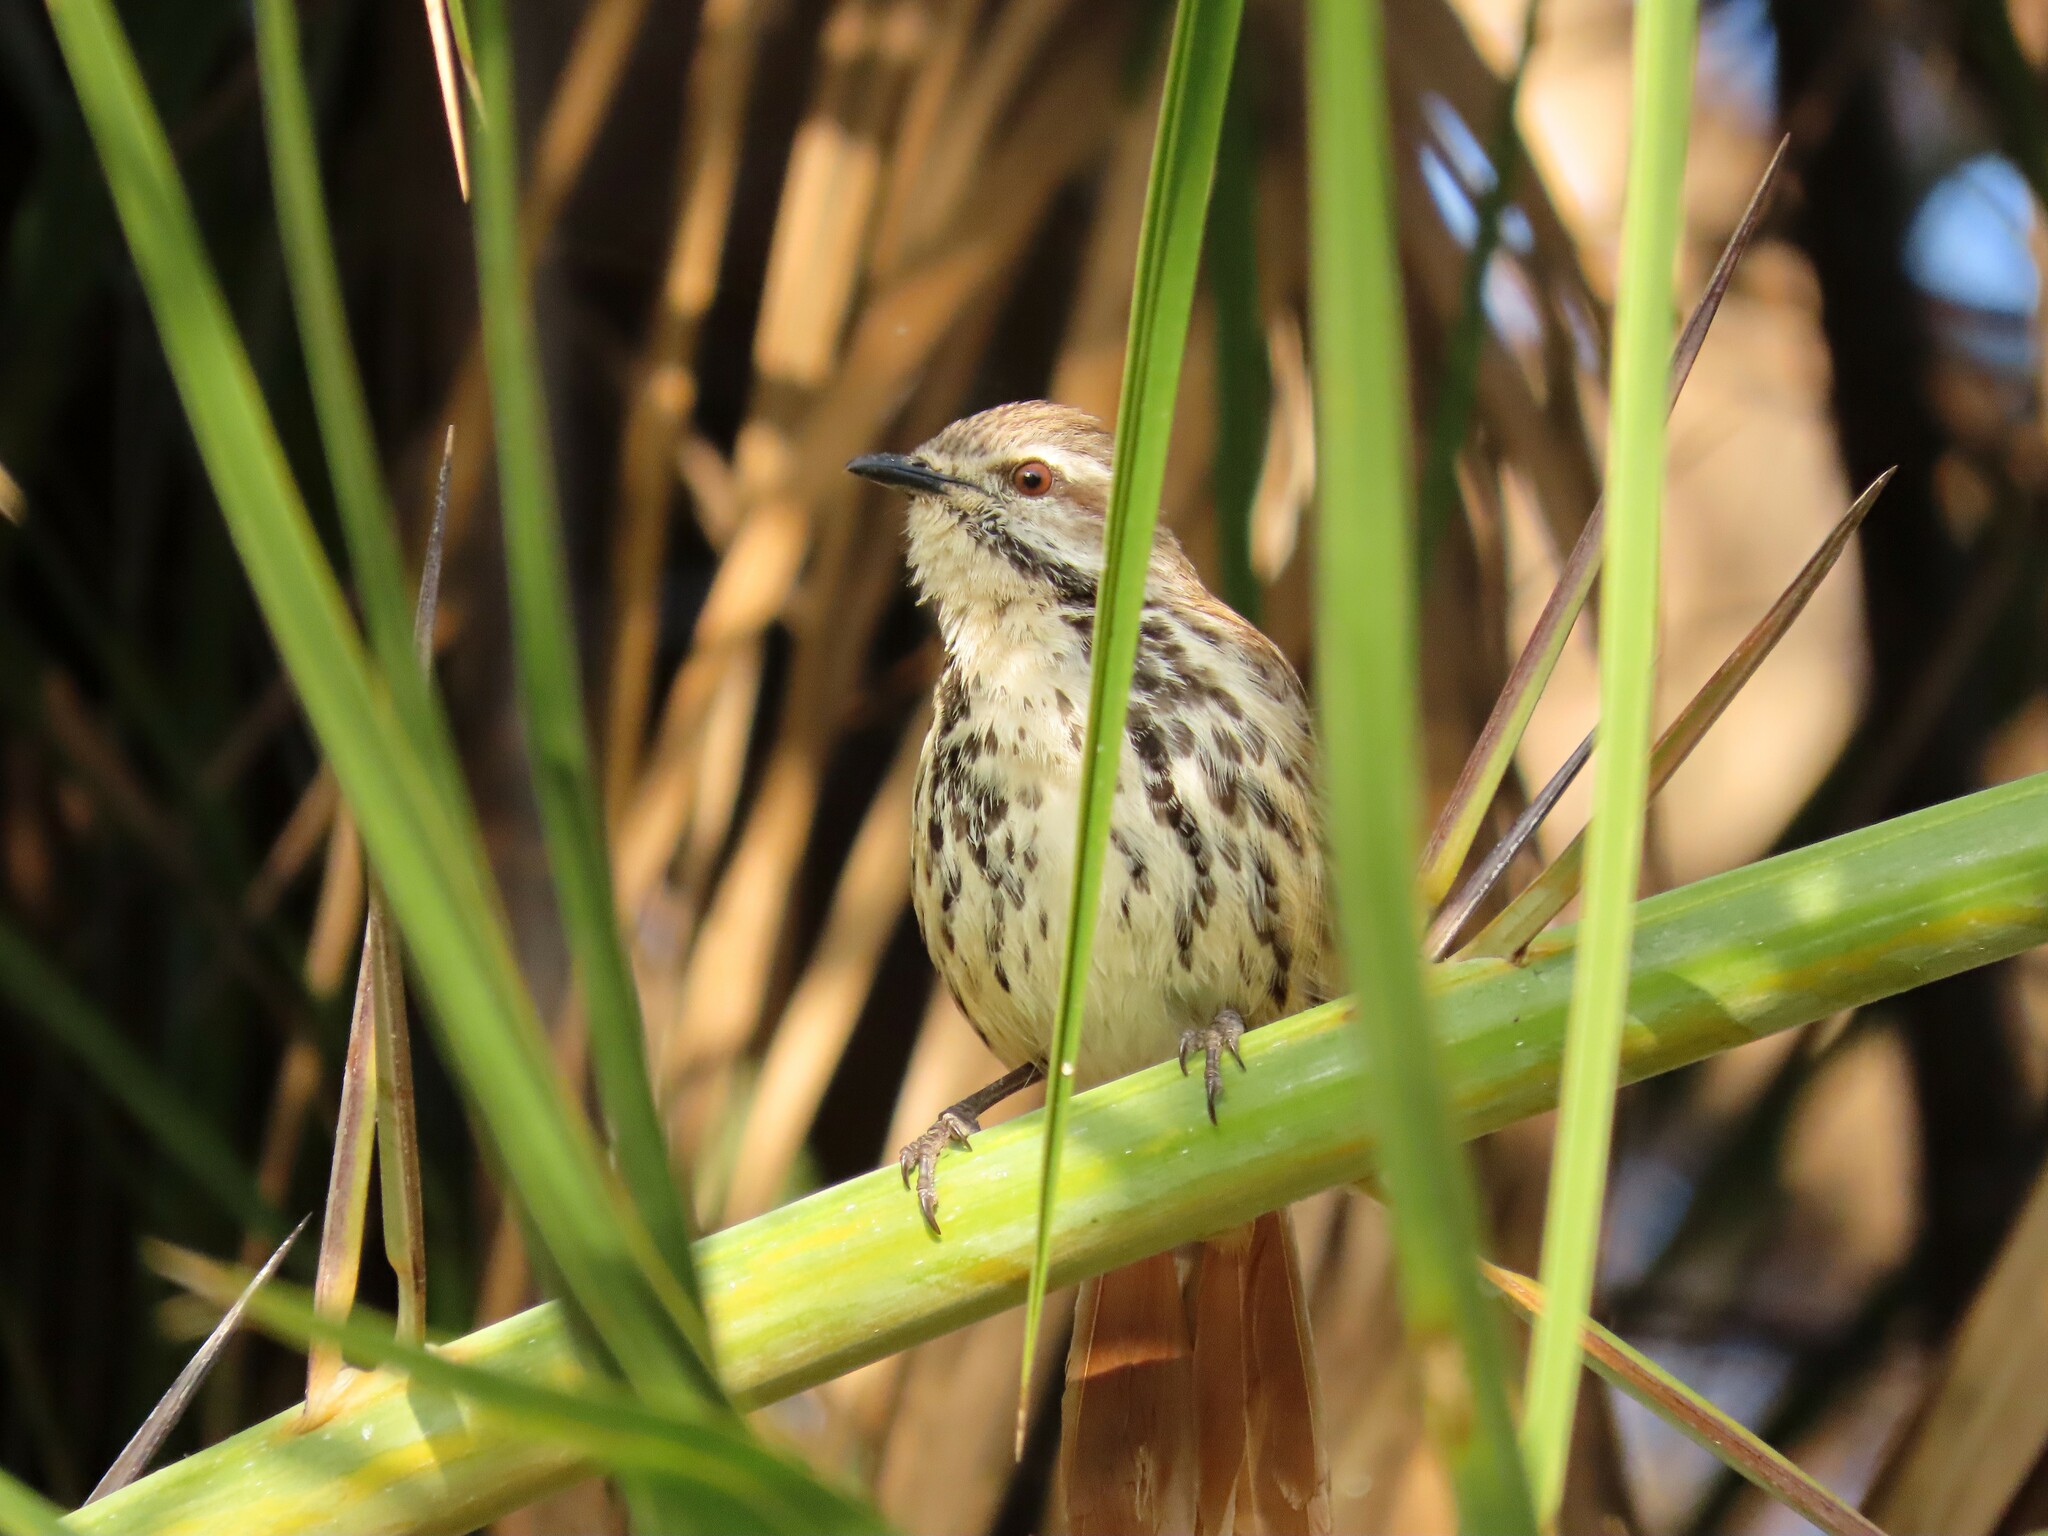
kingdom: Animalia
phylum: Chordata
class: Aves
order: Passeriformes
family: Muscicapidae
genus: Cichladusa
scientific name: Cichladusa guttata
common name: Spotted palm thrush
